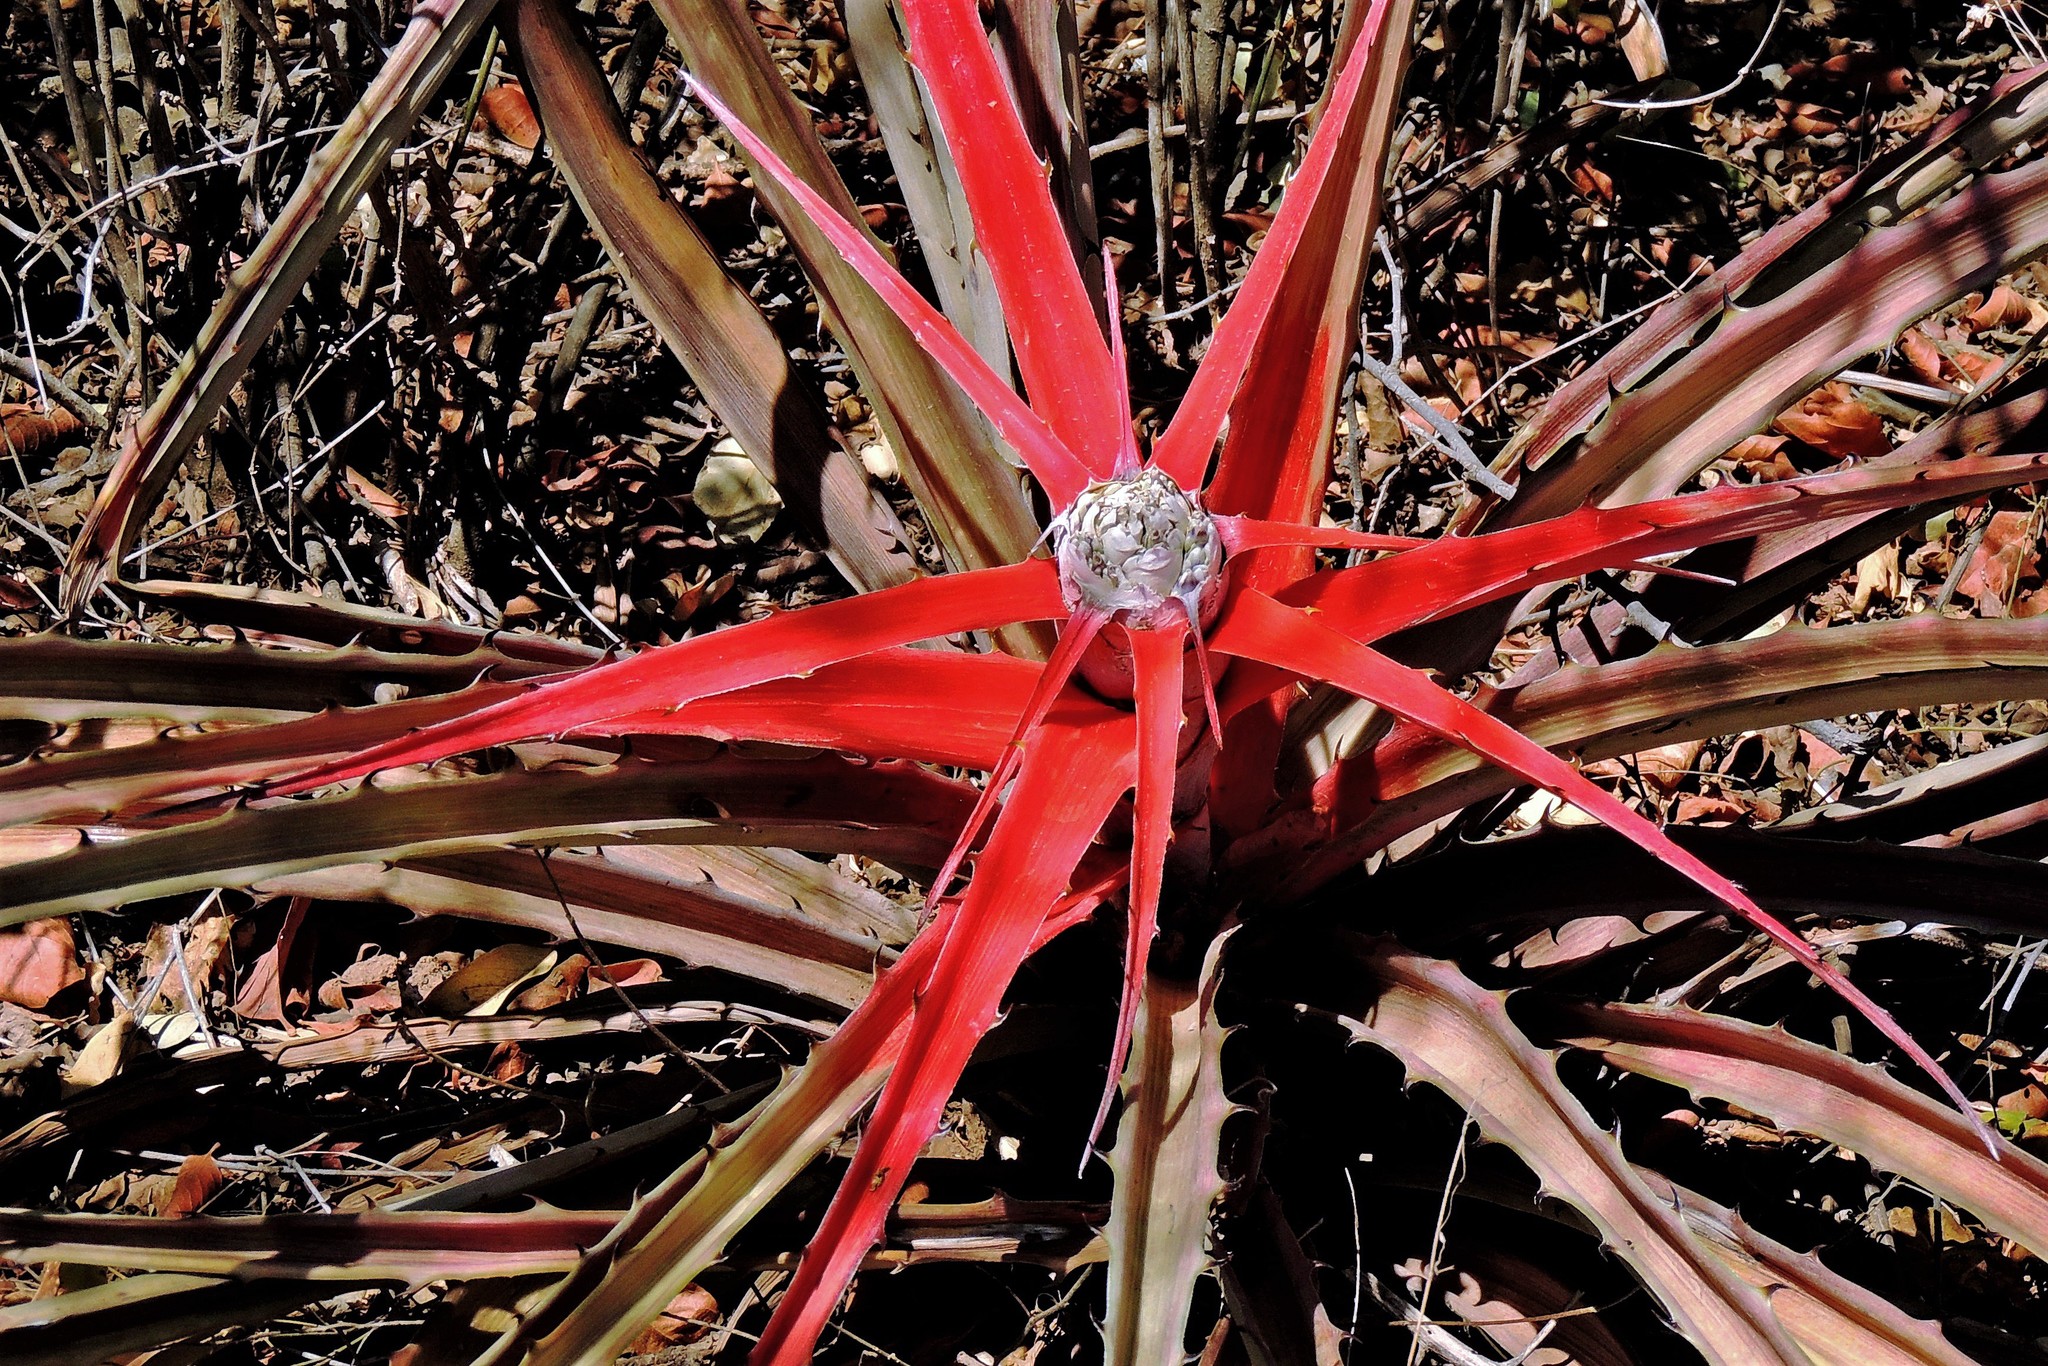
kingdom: Plantae
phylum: Tracheophyta
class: Liliopsida
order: Poales
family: Bromeliaceae
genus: Bromelia
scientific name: Bromelia serra
